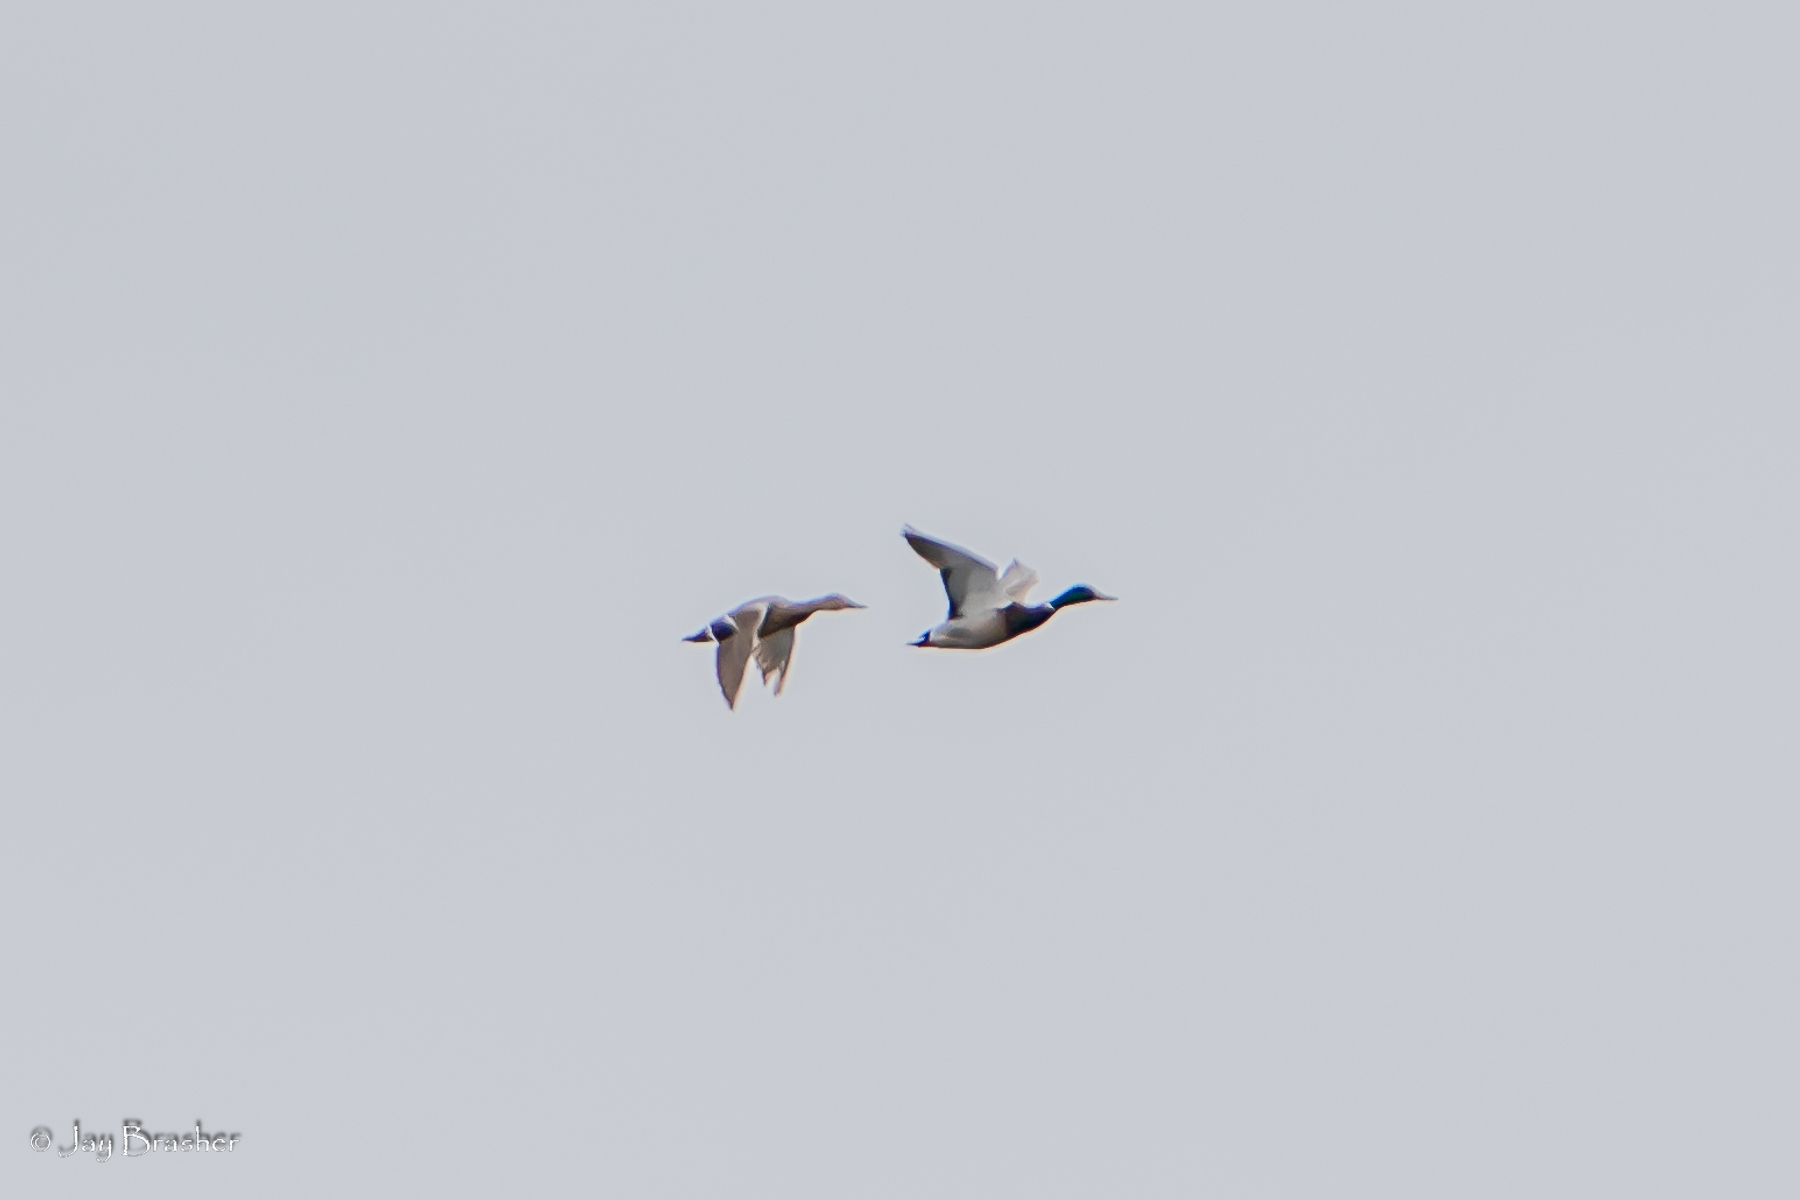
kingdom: Animalia
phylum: Chordata
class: Aves
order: Anseriformes
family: Anatidae
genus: Anas
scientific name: Anas platyrhynchos
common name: Mallard
